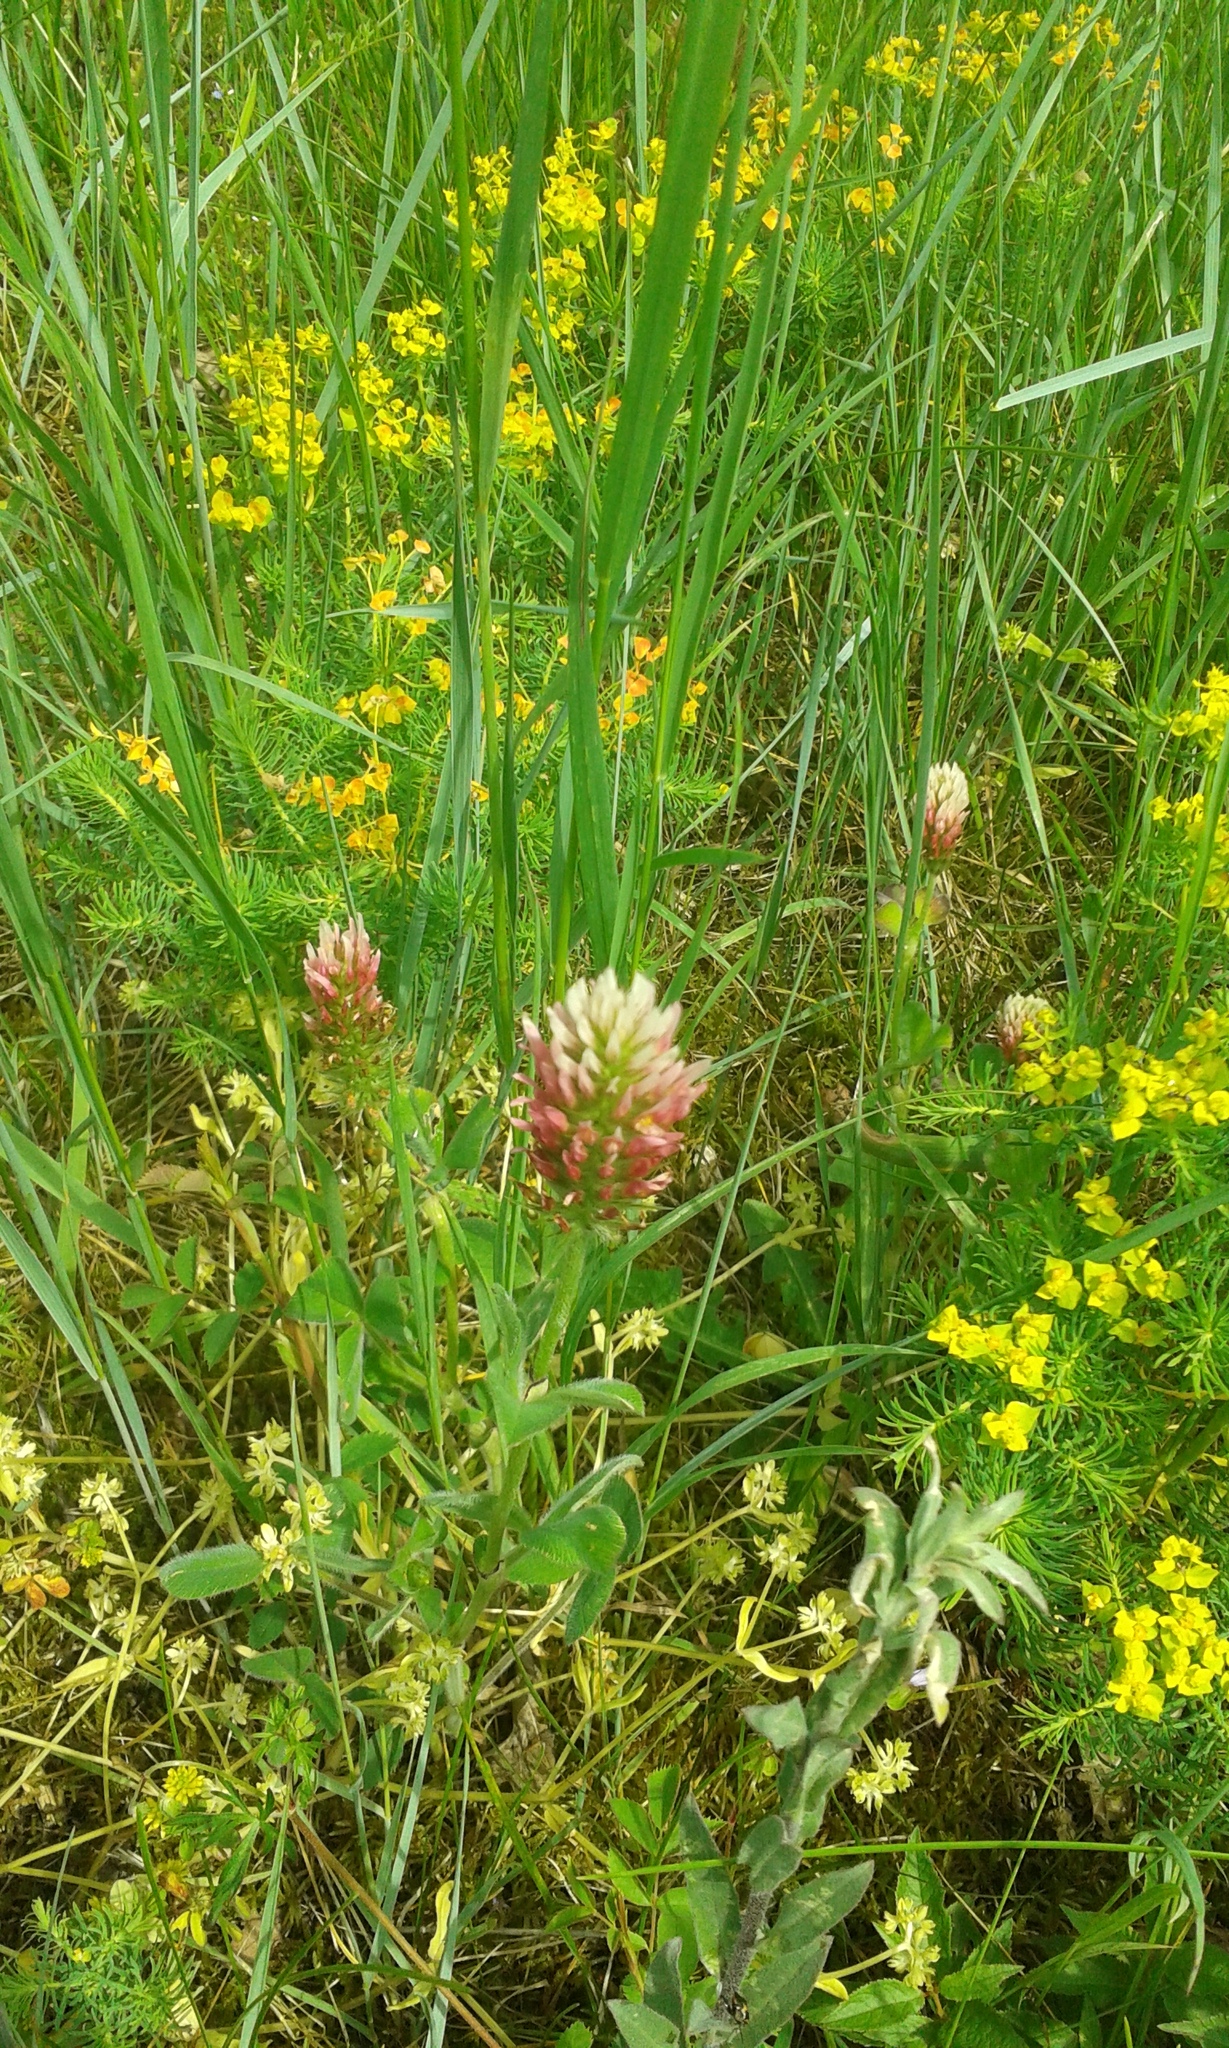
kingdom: Plantae
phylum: Tracheophyta
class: Magnoliopsida
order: Fabales
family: Fabaceae
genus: Trifolium
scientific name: Trifolium incarnatum
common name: Crimson clover
